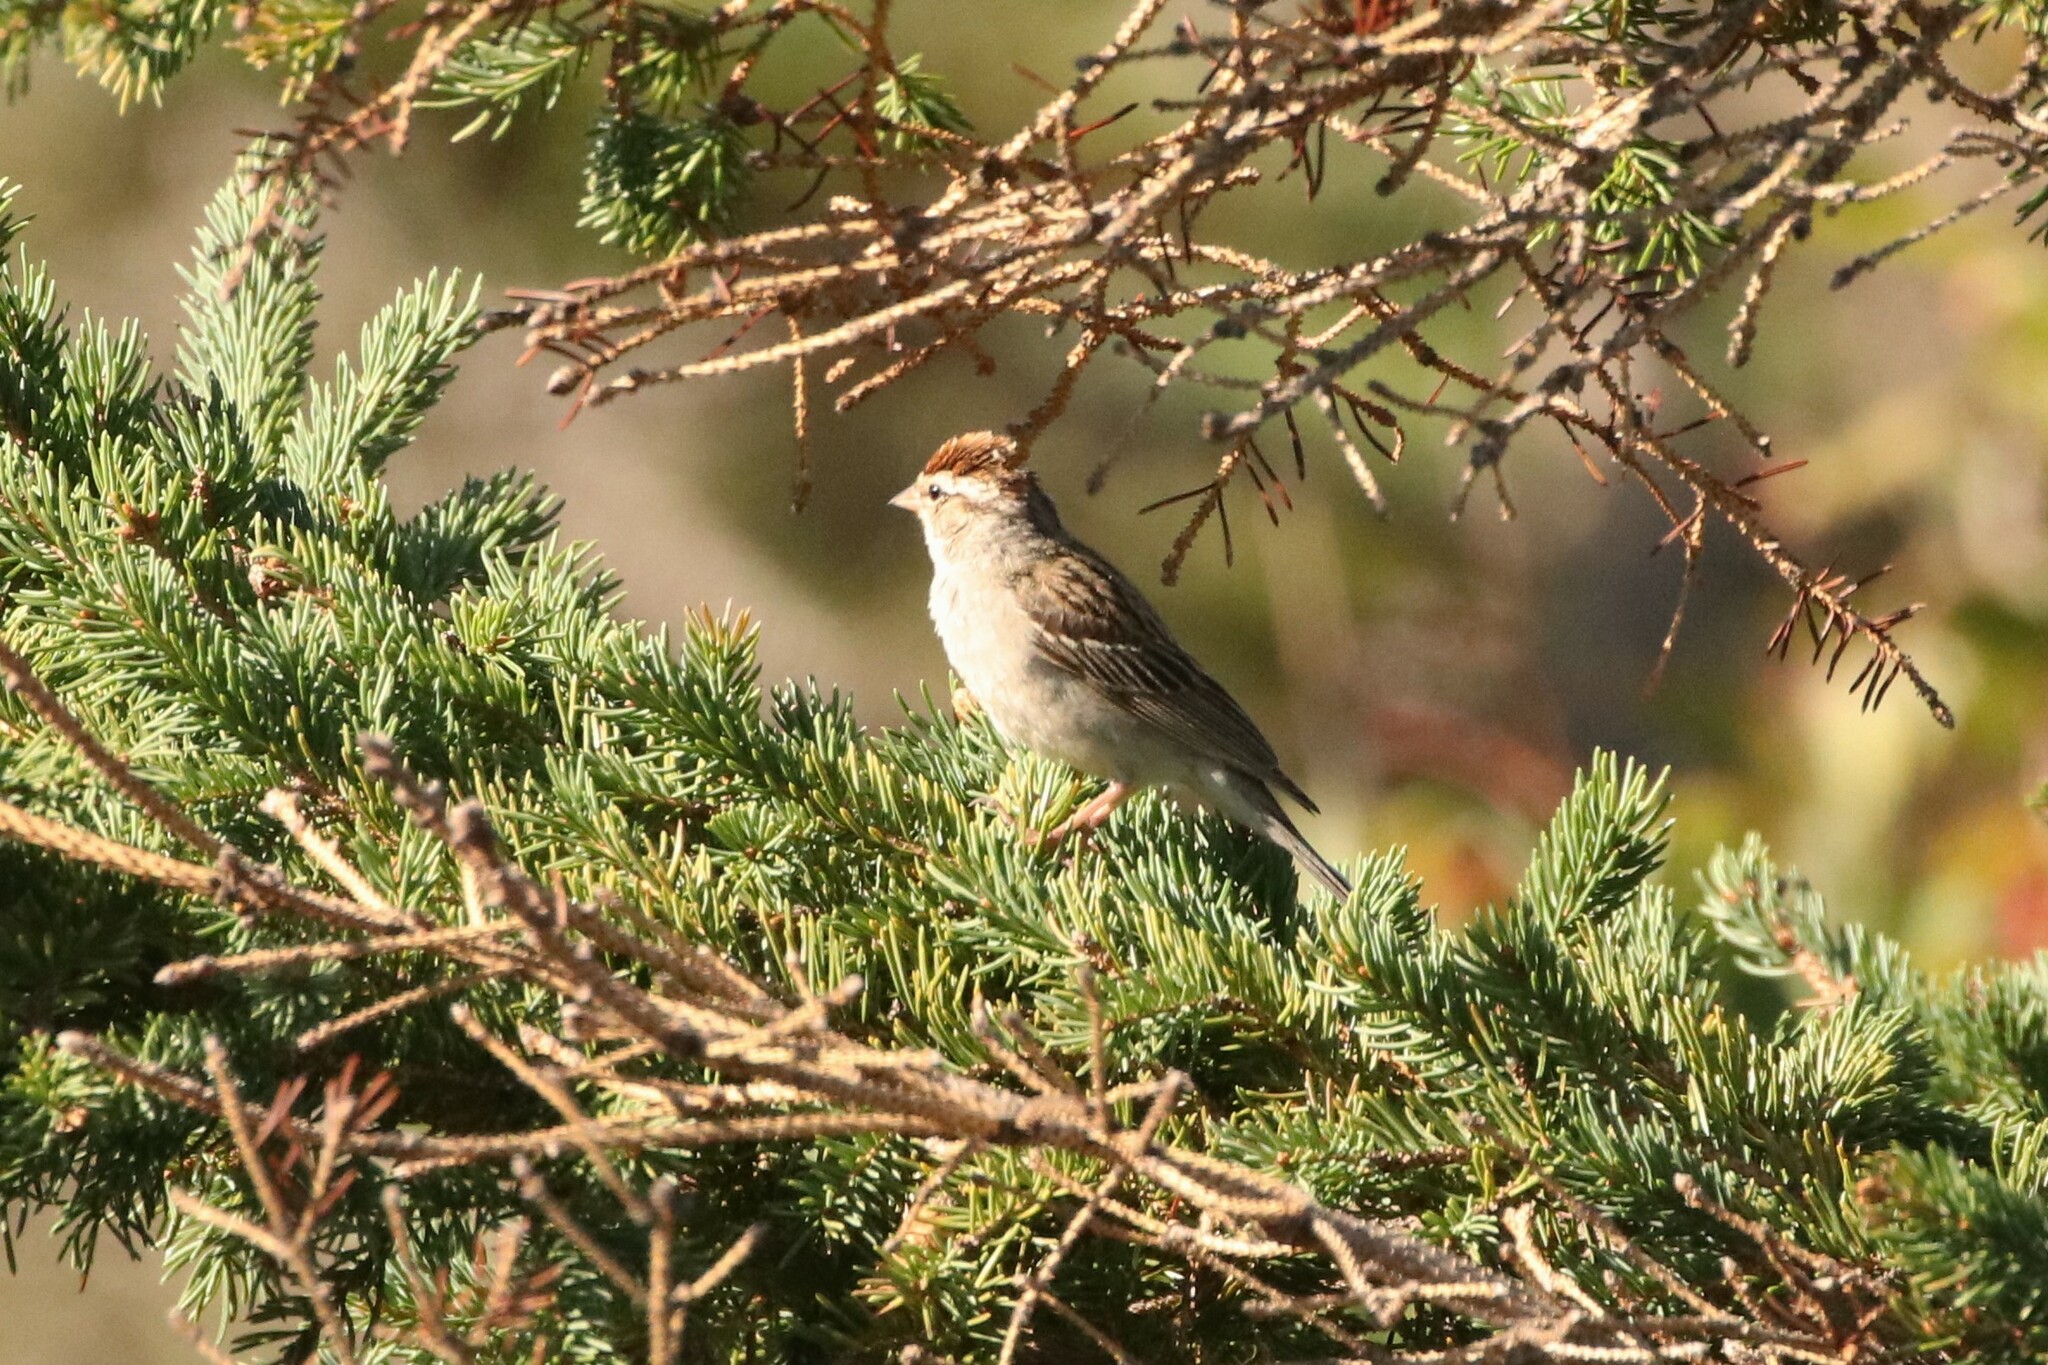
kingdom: Animalia
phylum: Chordata
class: Aves
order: Passeriformes
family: Passerellidae
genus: Spizella
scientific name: Spizella passerina
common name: Chipping sparrow
